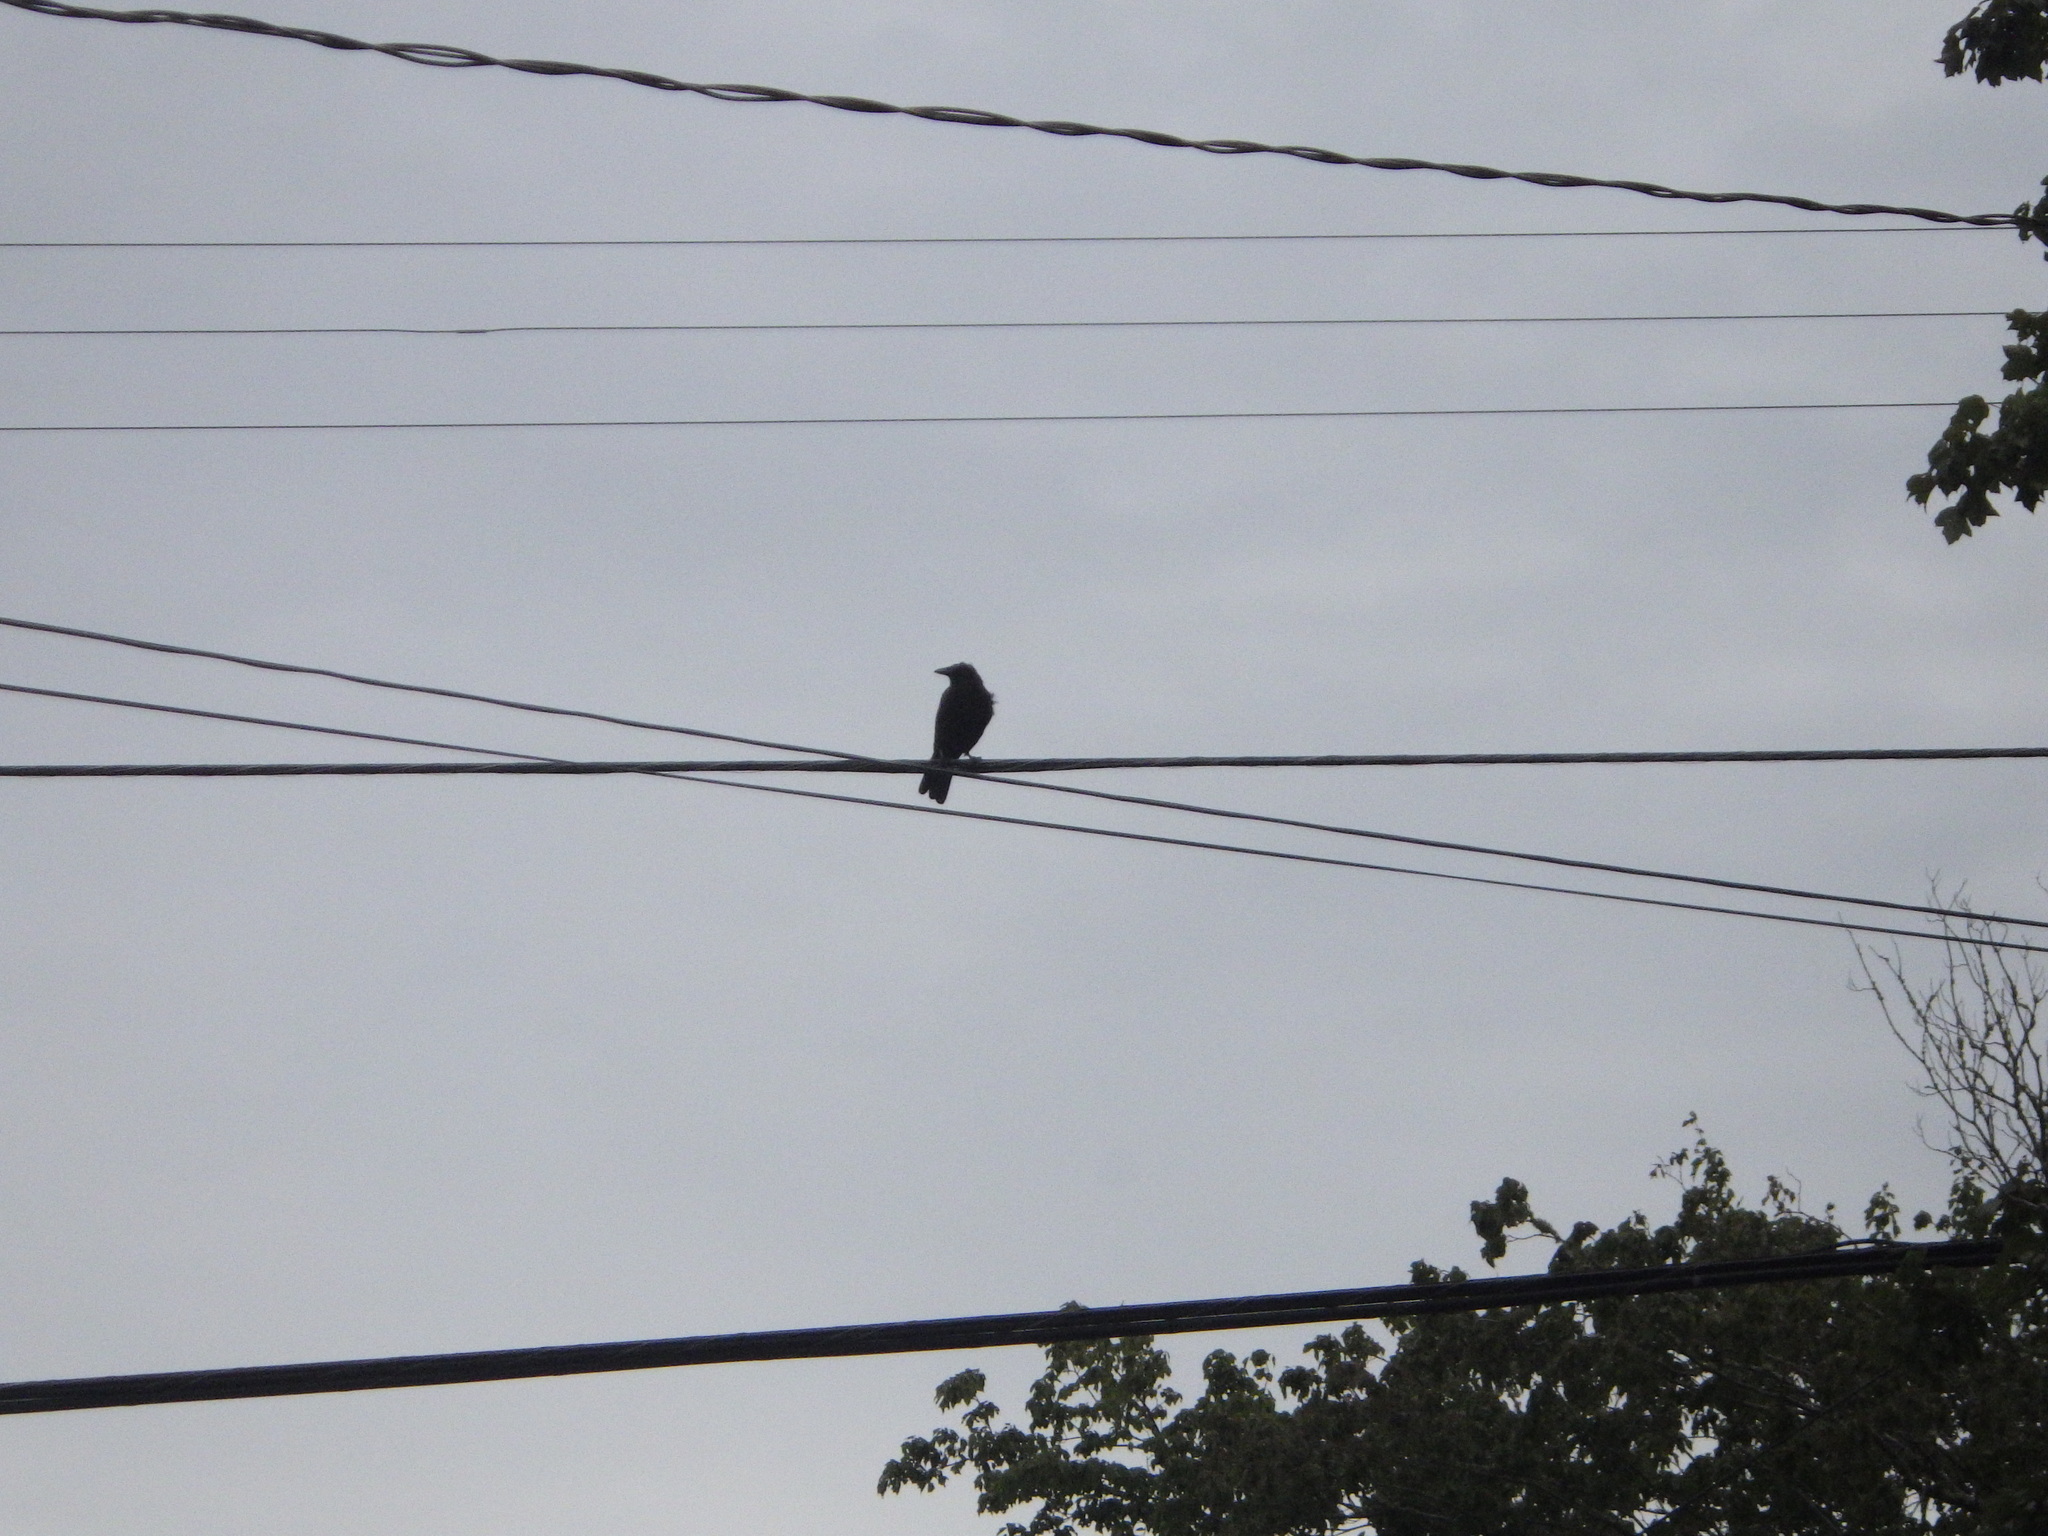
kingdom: Animalia
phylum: Chordata
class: Aves
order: Passeriformes
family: Corvidae
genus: Corvus
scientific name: Corvus brachyrhynchos
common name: American crow
